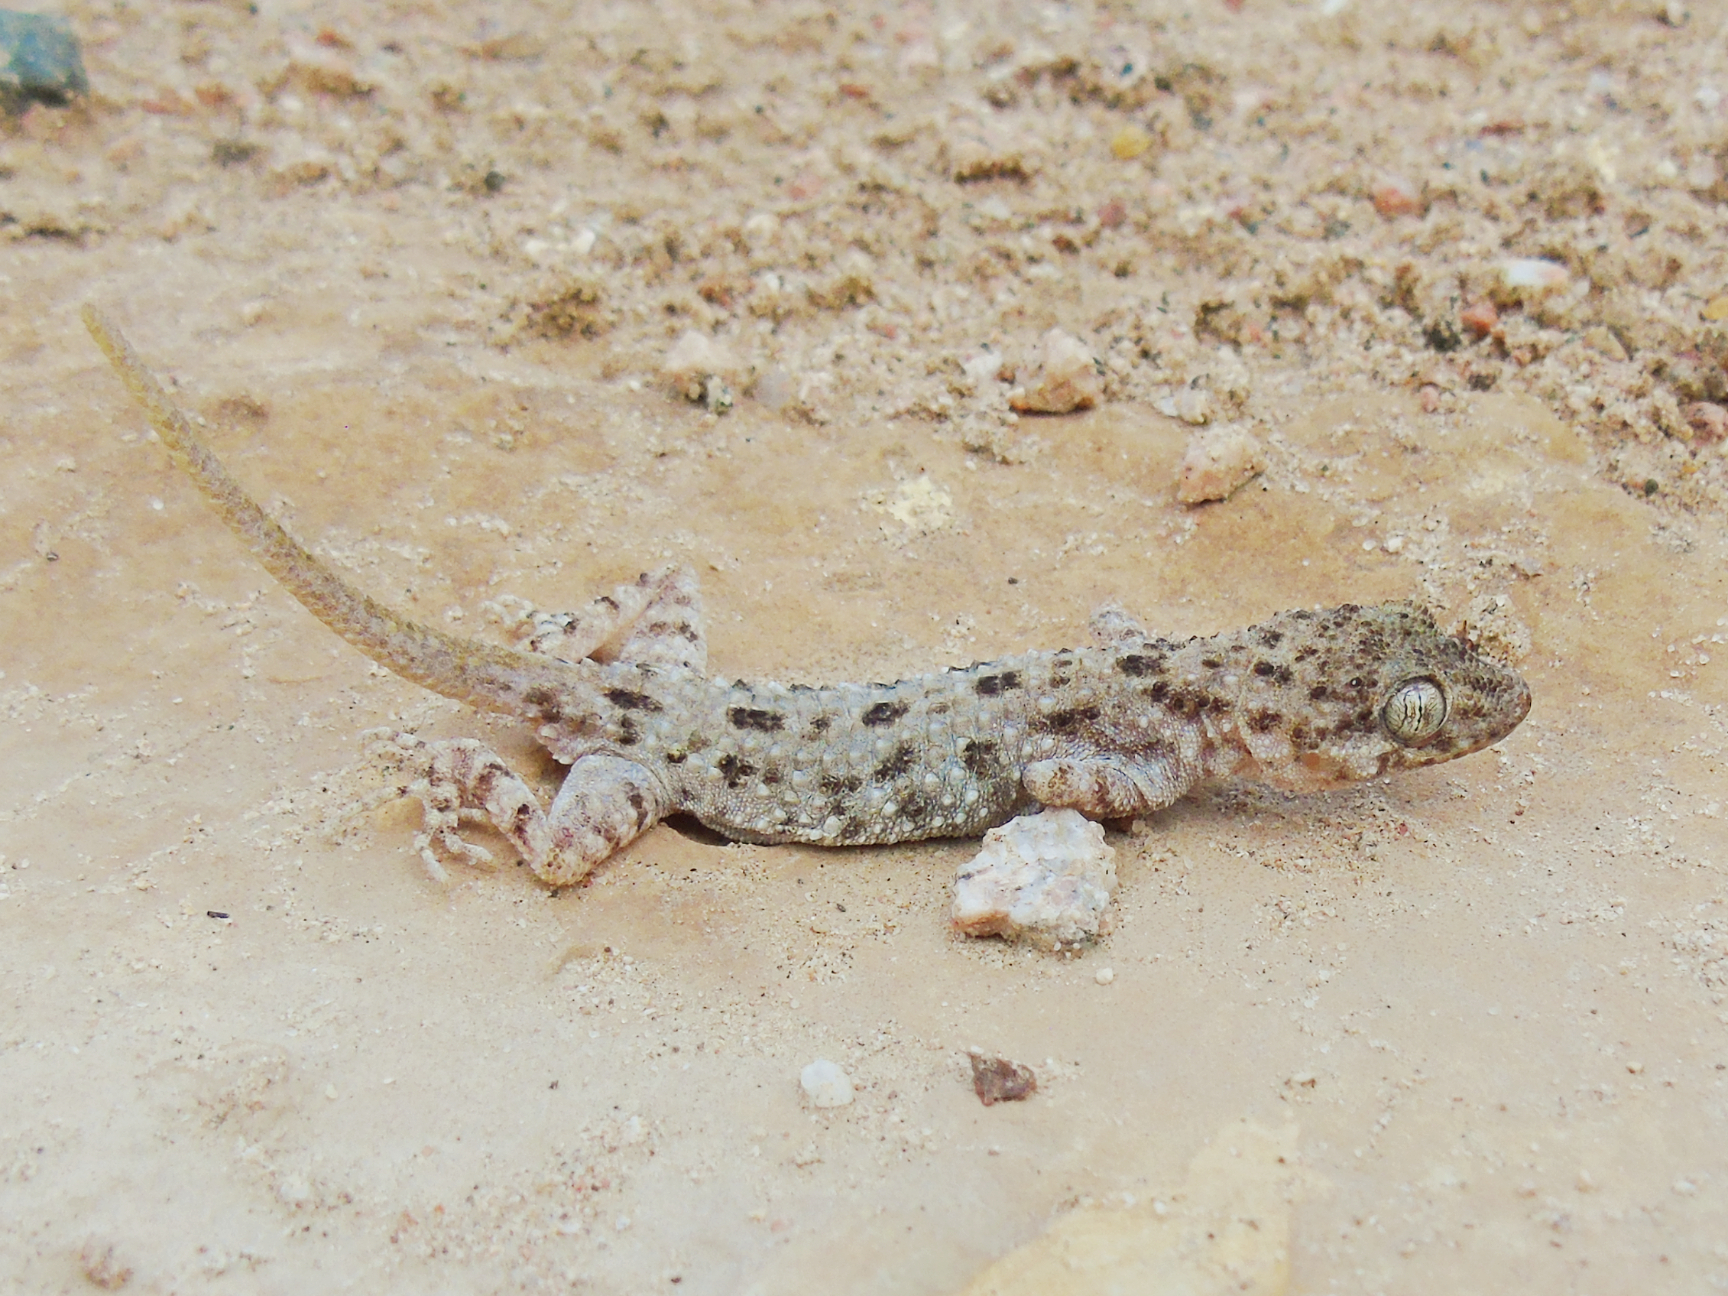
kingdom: Animalia
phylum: Chordata
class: Squamata
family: Gekkonidae
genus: Cyrtopodion
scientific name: Cyrtopodion scabrum
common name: Rough-tailed gecko
